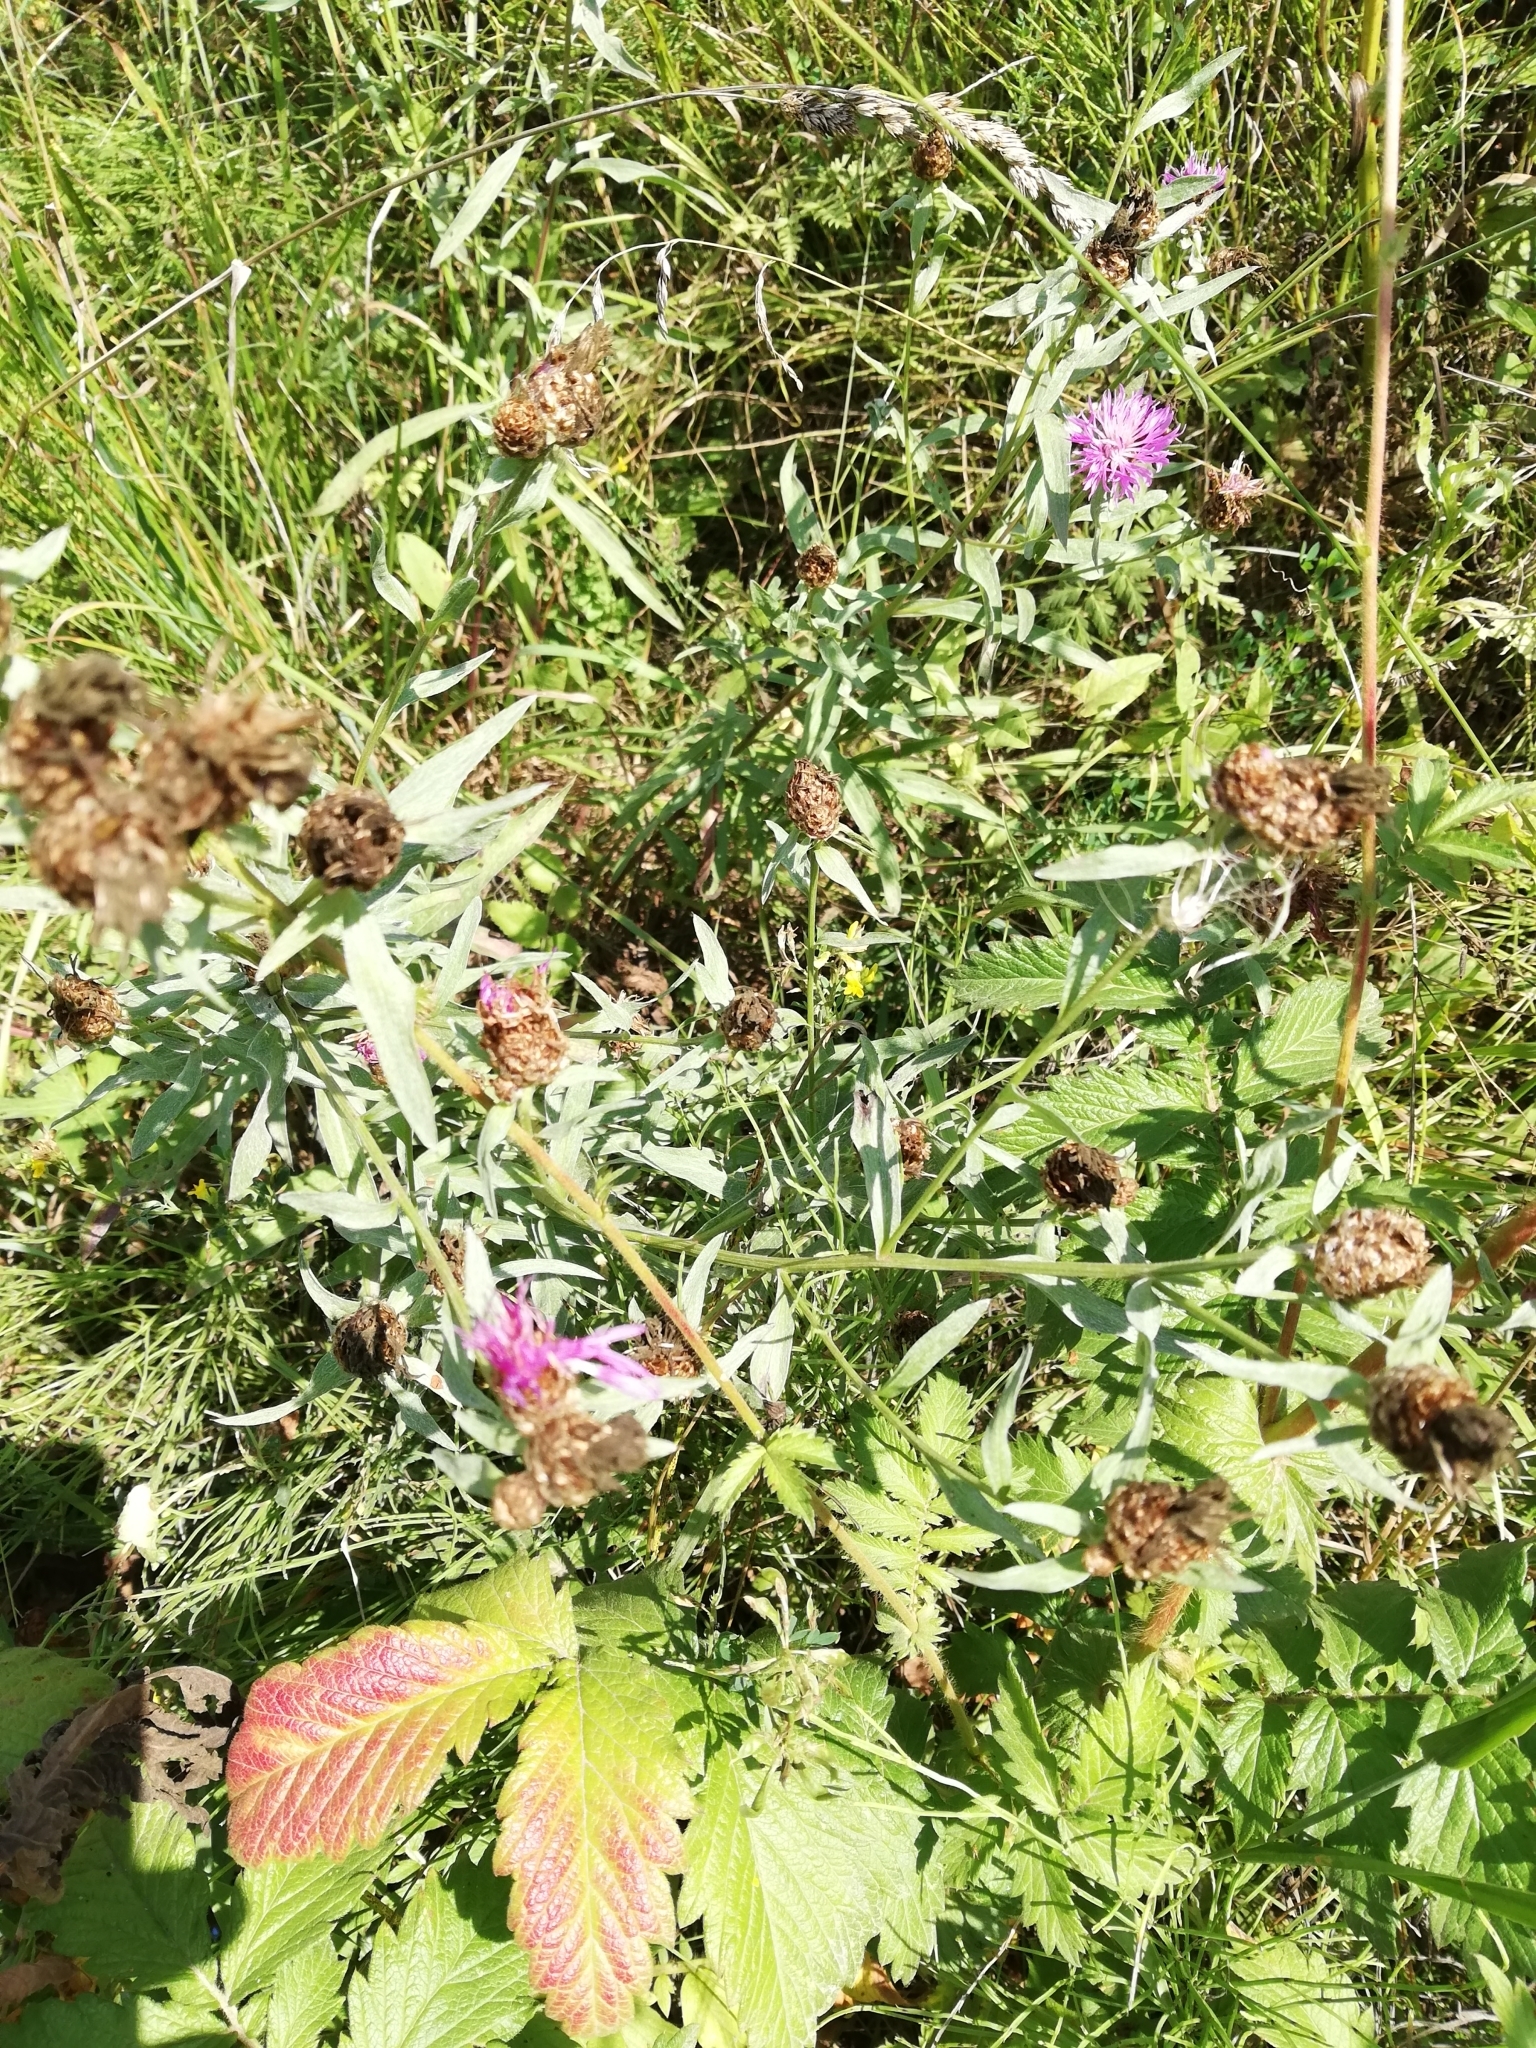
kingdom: Plantae
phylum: Tracheophyta
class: Magnoliopsida
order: Asterales
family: Asteraceae
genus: Centaurea
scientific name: Centaurea jacea
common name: Brown knapweed
